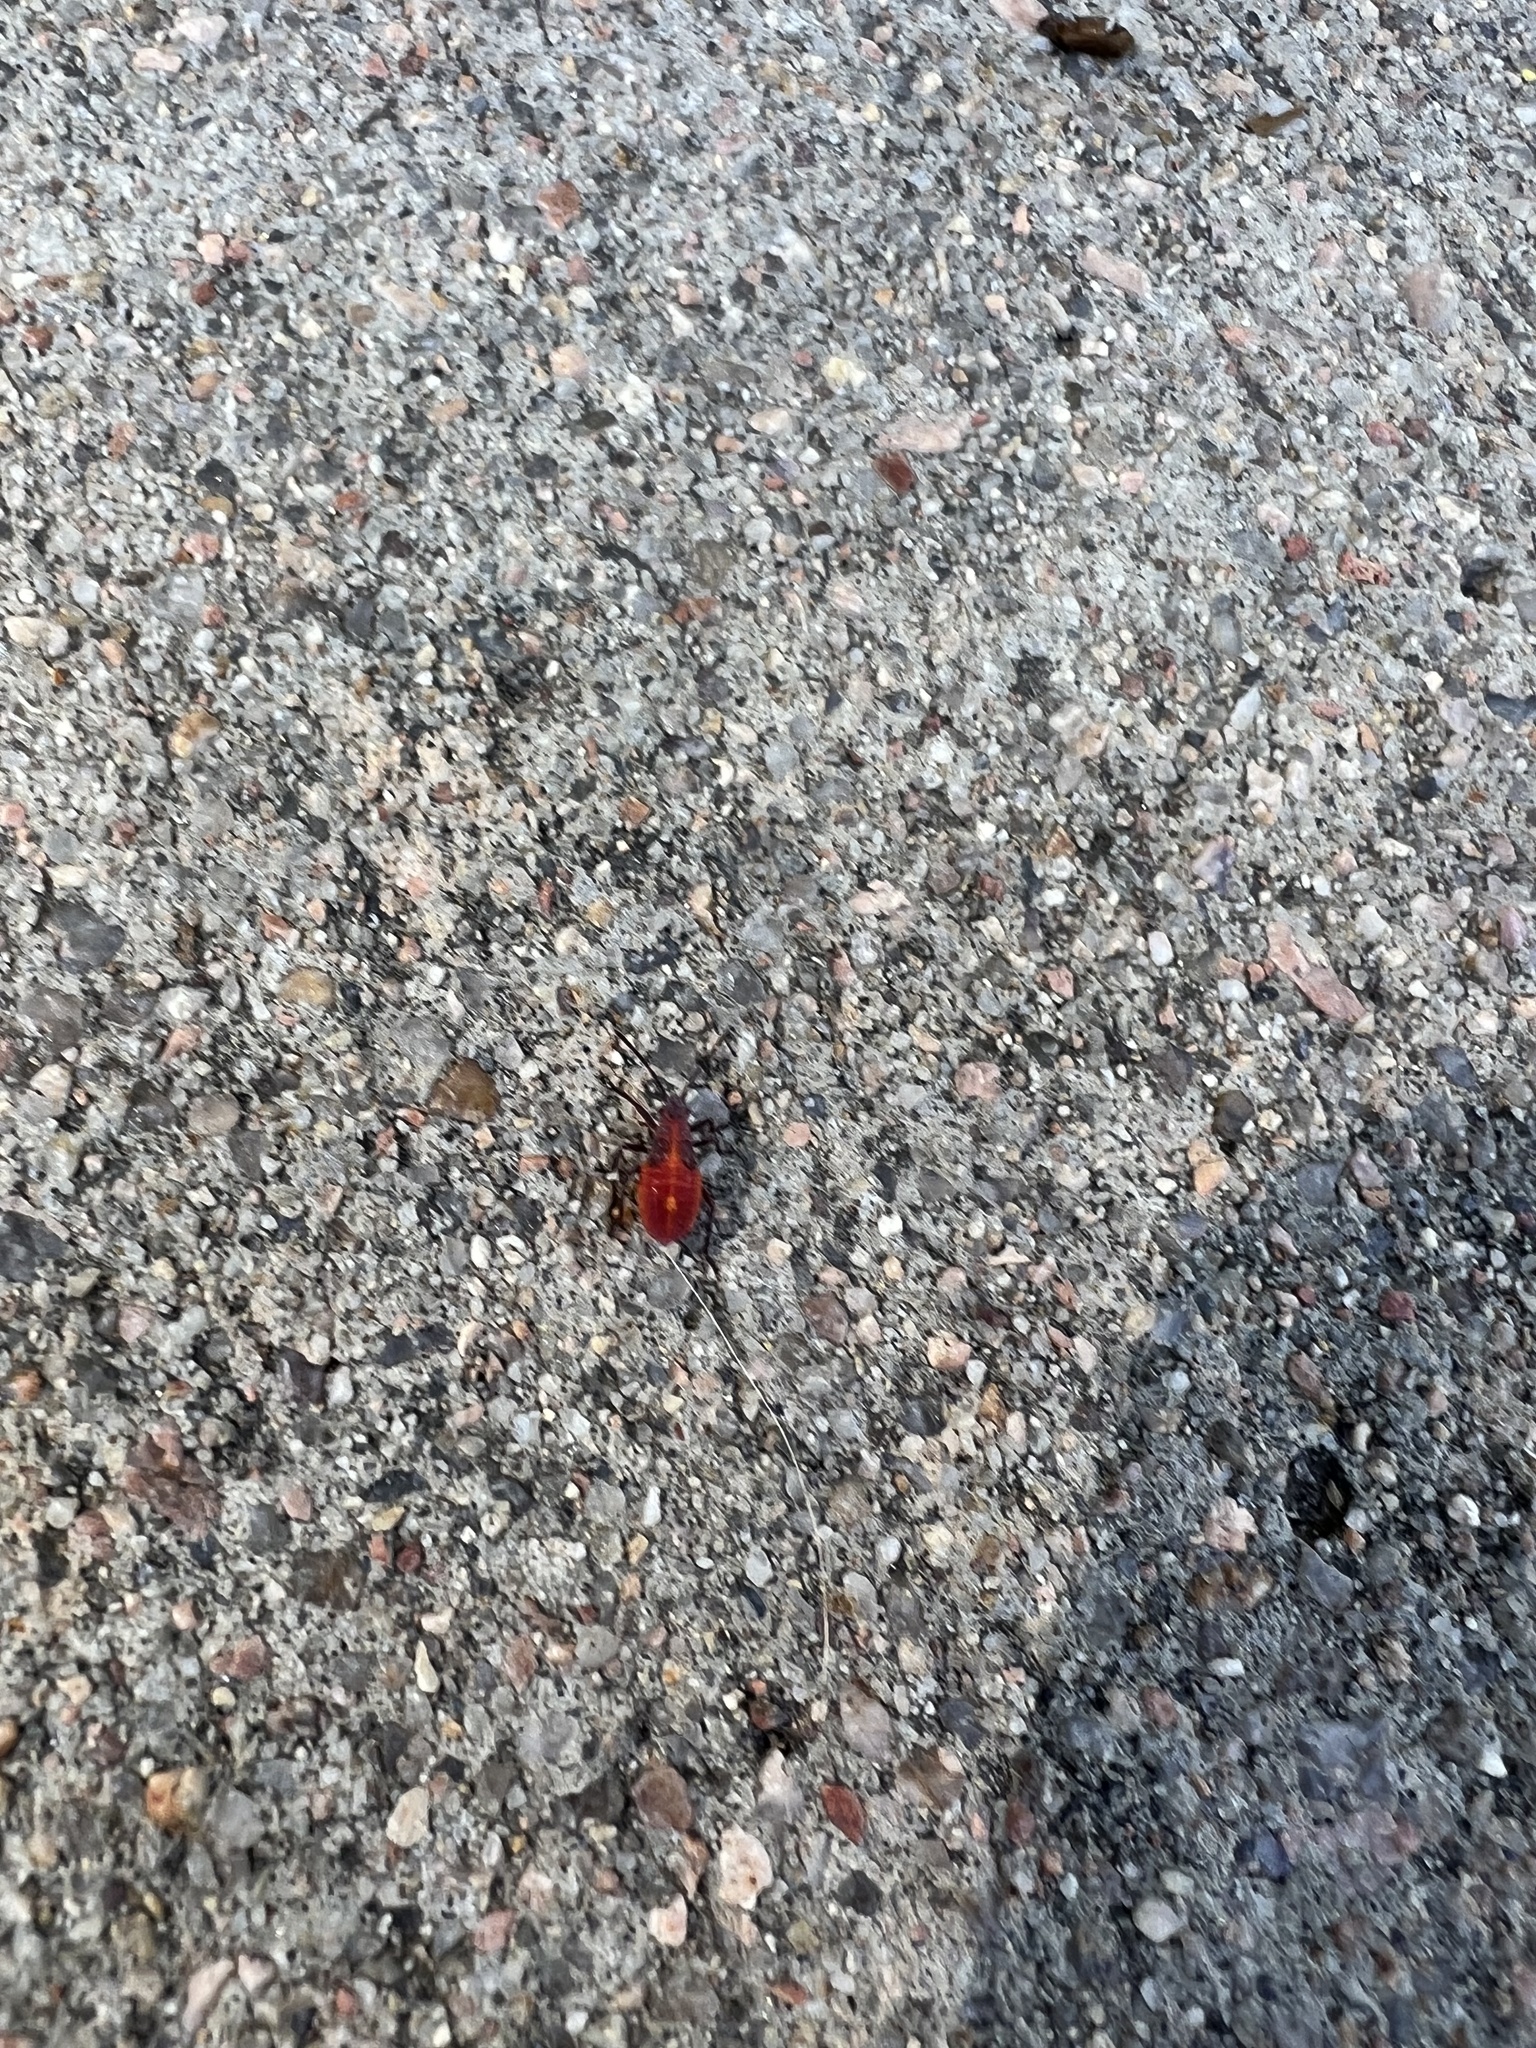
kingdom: Animalia
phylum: Arthropoda
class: Insecta
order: Hemiptera
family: Rhopalidae
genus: Boisea
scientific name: Boisea trivittata
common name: Boxelder bug
